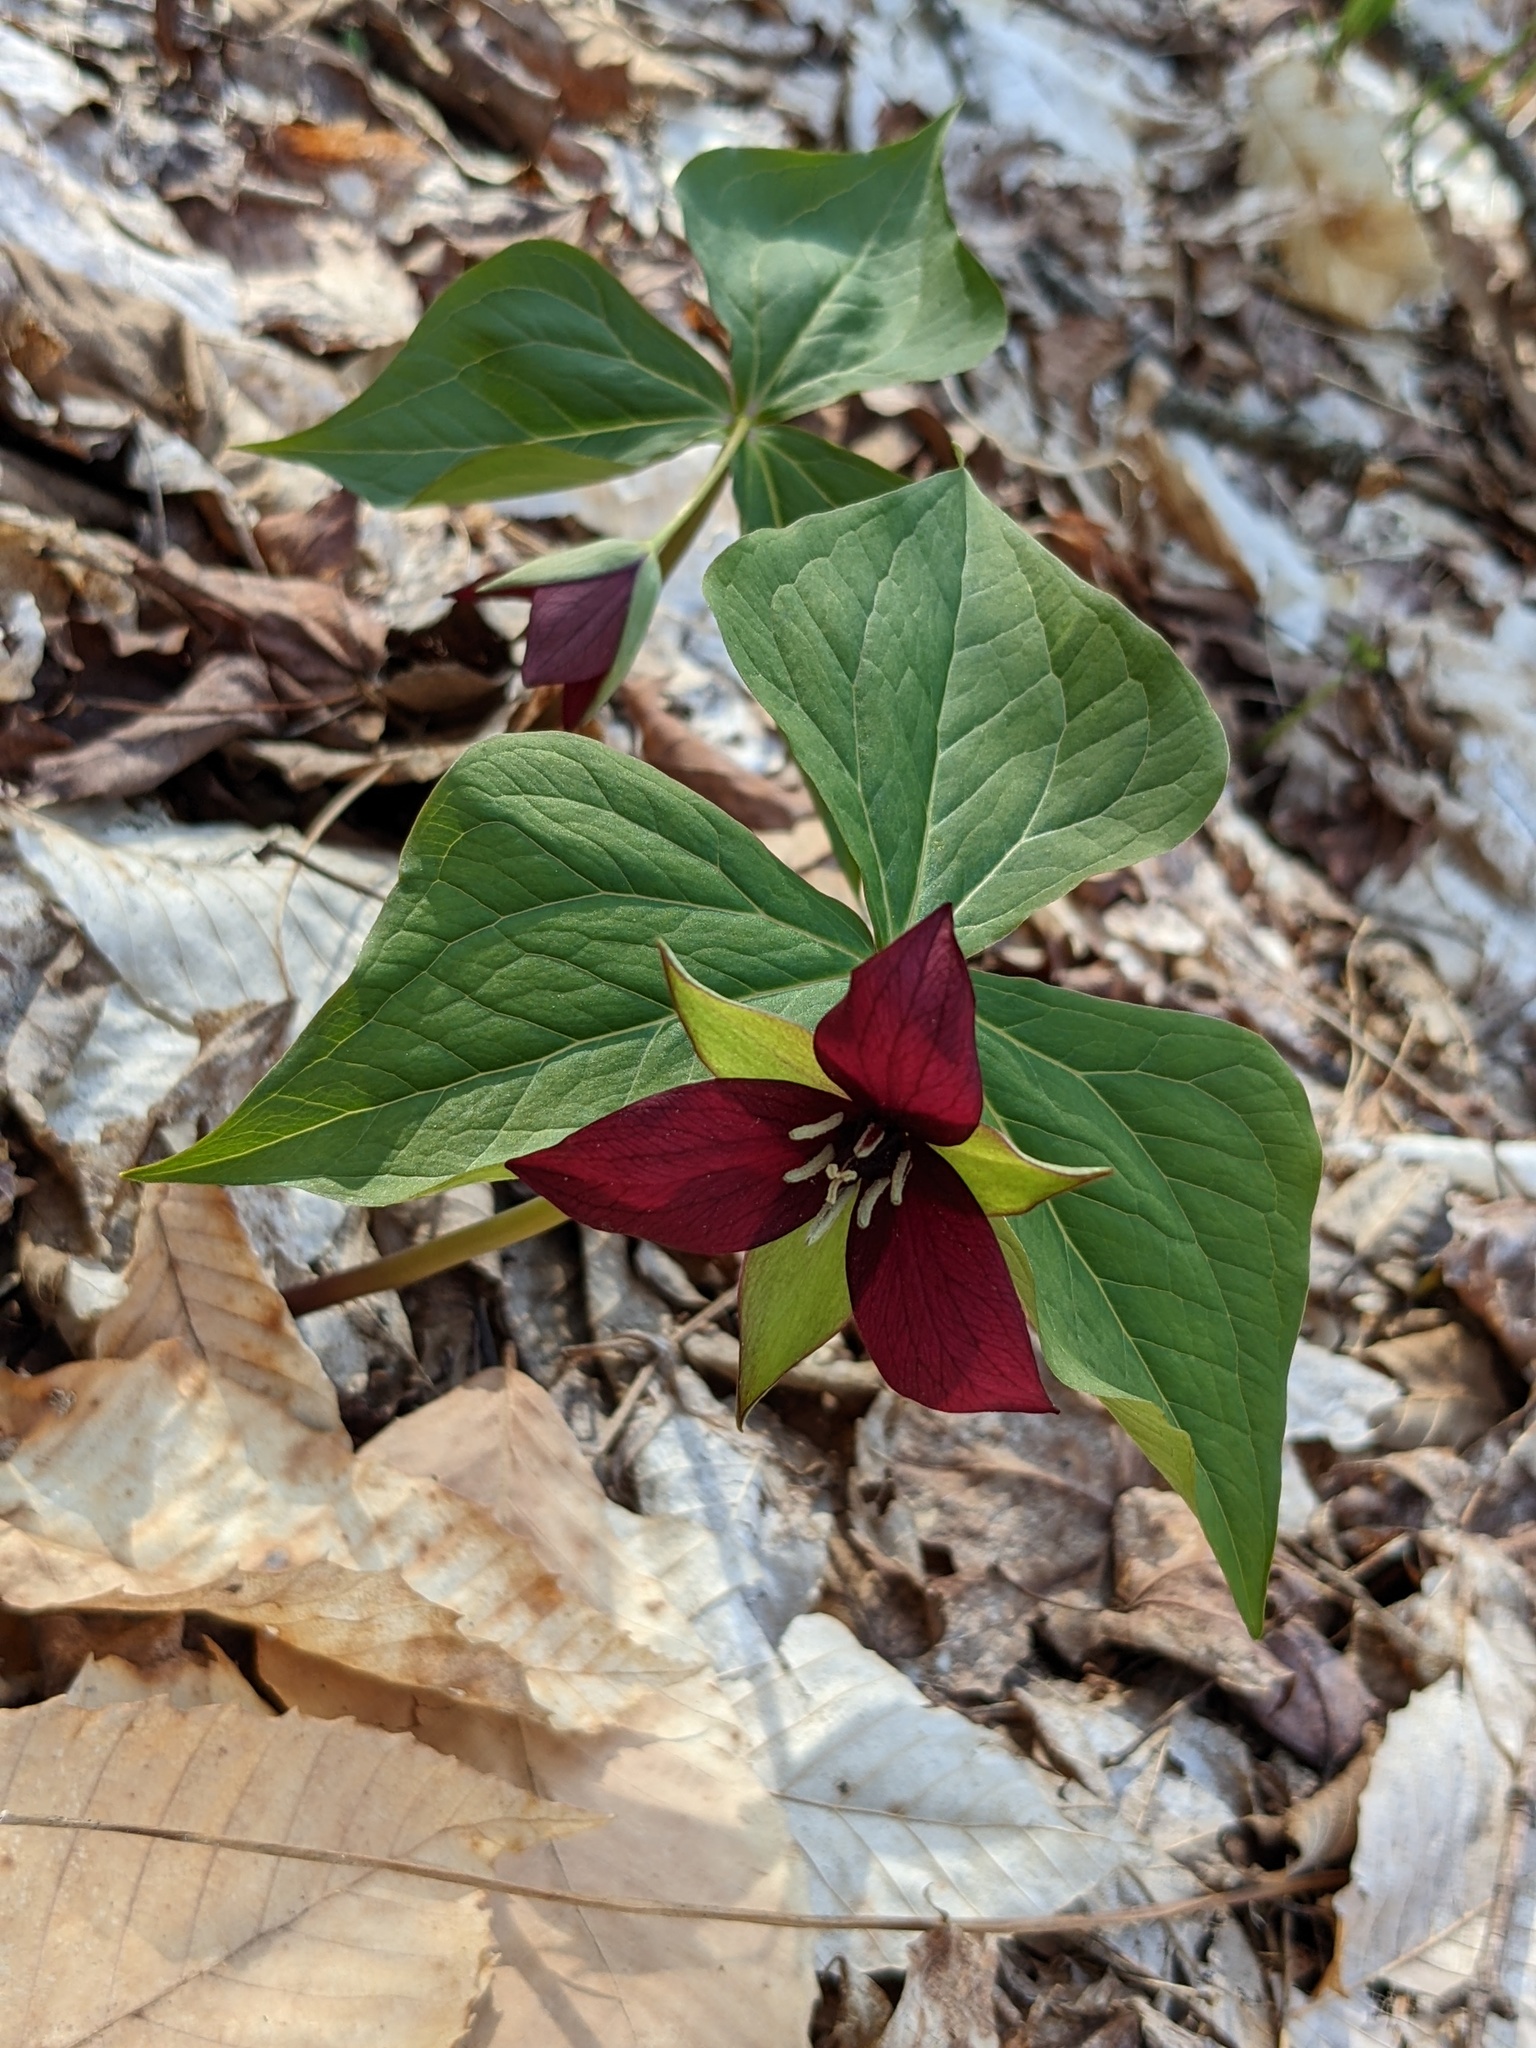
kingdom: Plantae
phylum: Tracheophyta
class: Liliopsida
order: Liliales
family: Melanthiaceae
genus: Trillium
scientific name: Trillium erectum
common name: Purple trillium
